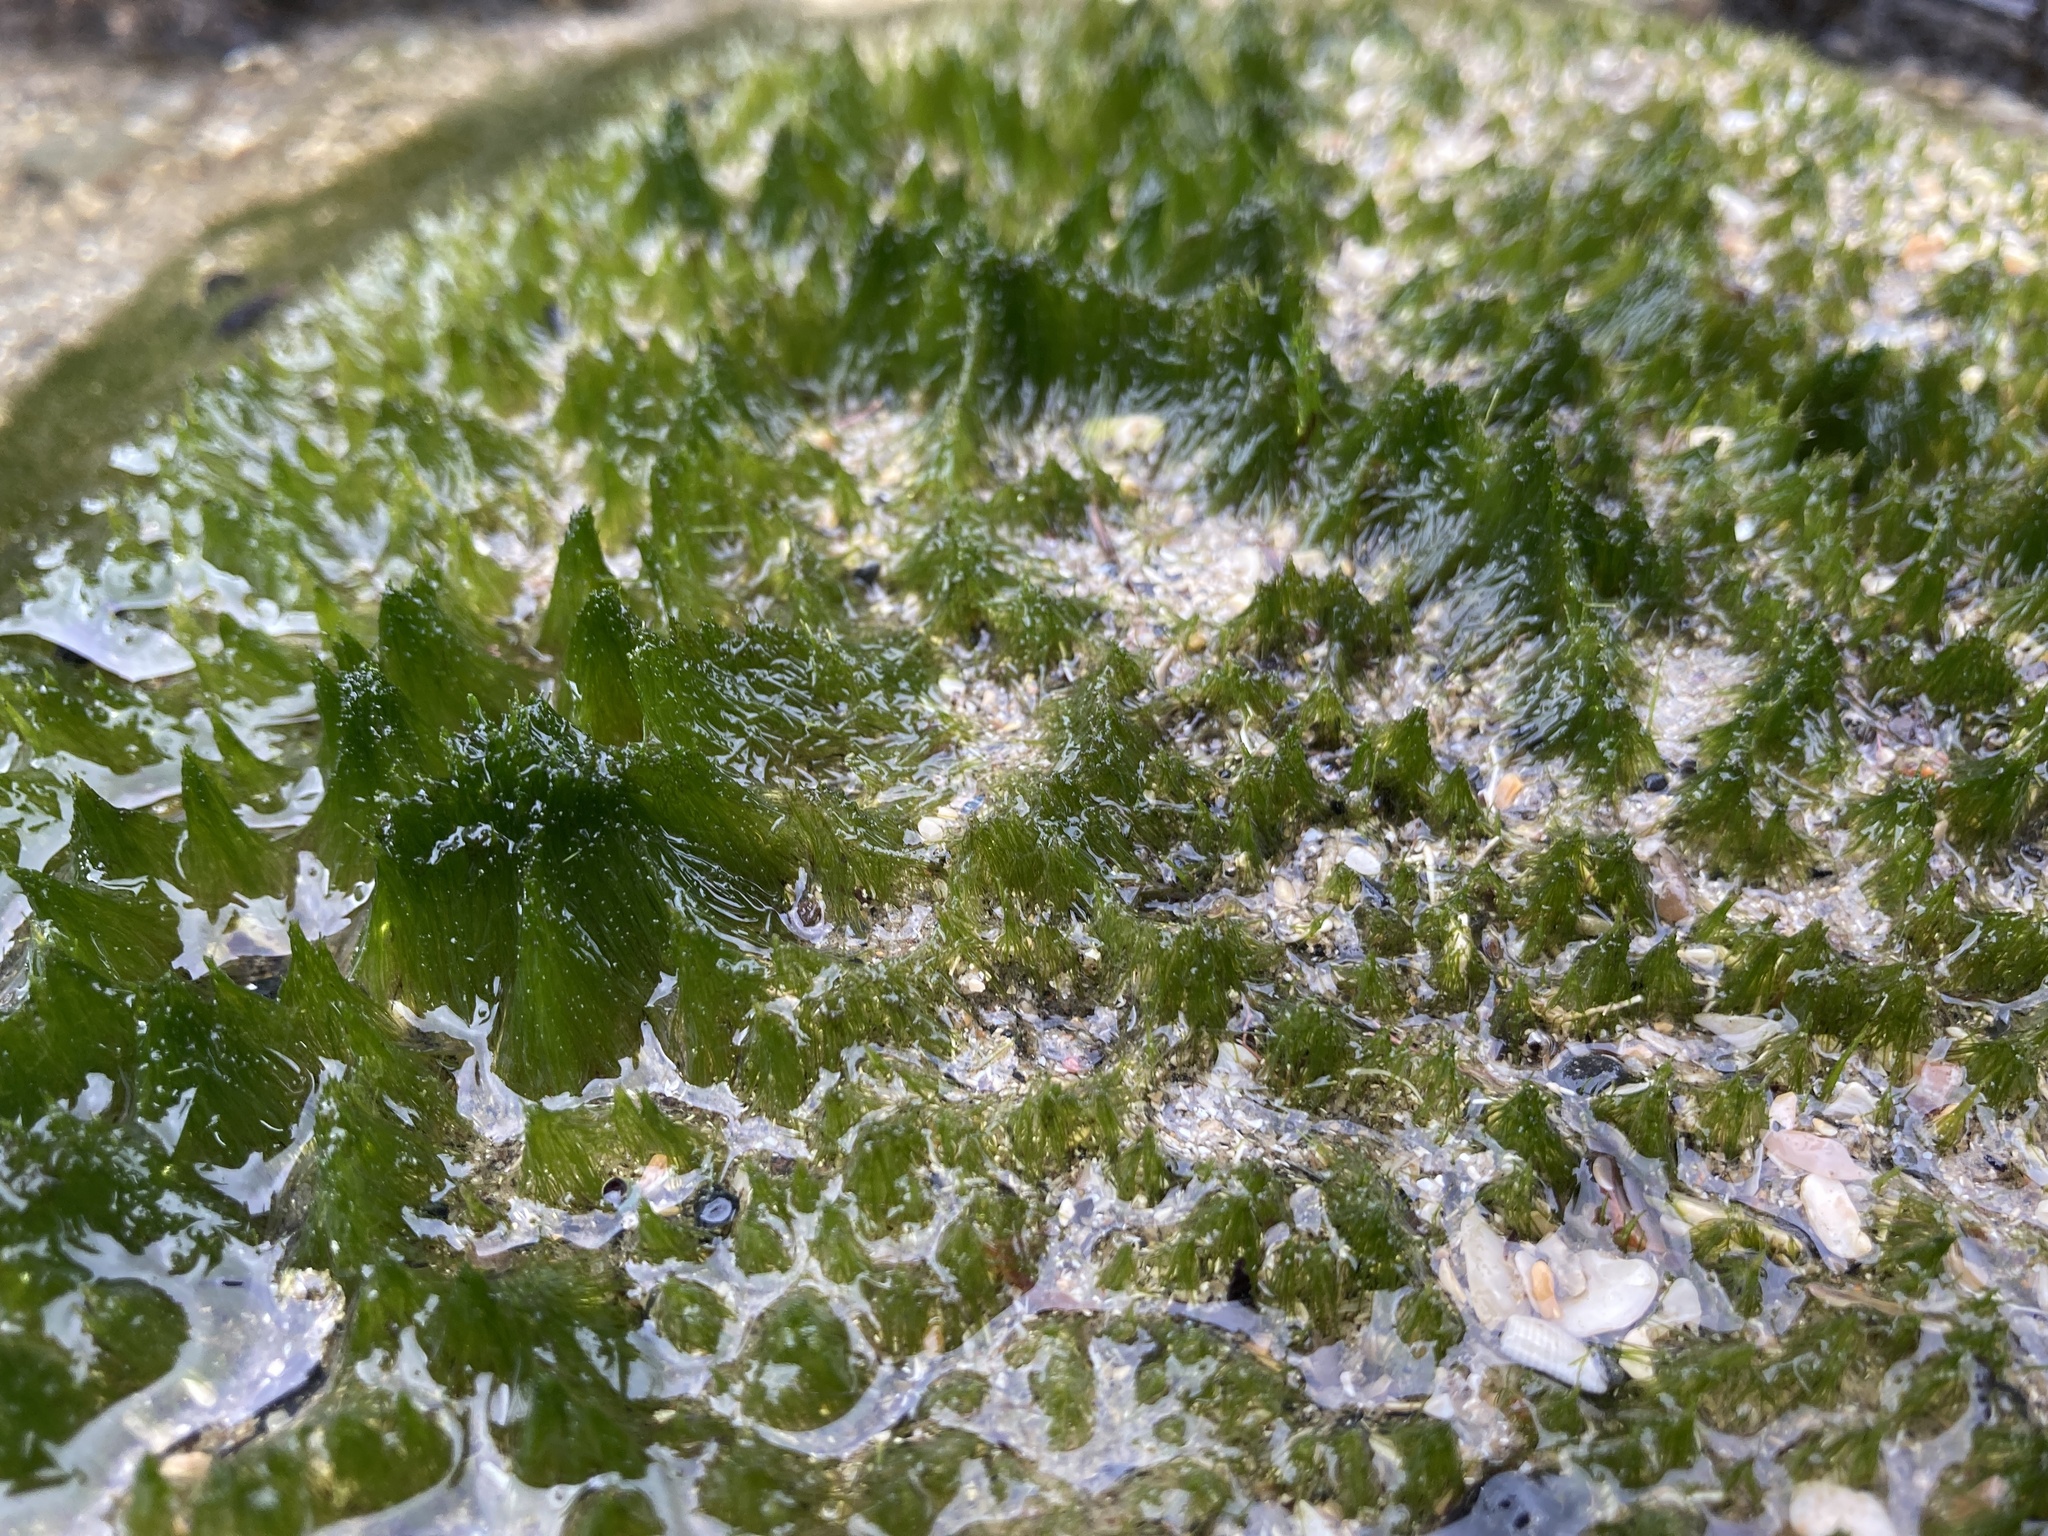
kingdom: Chromista
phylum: Ochrophyta
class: Xanthophyceae
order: Vaucheriales
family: Vaucheriaceae
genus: Vaucheria
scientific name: Vaucheria
